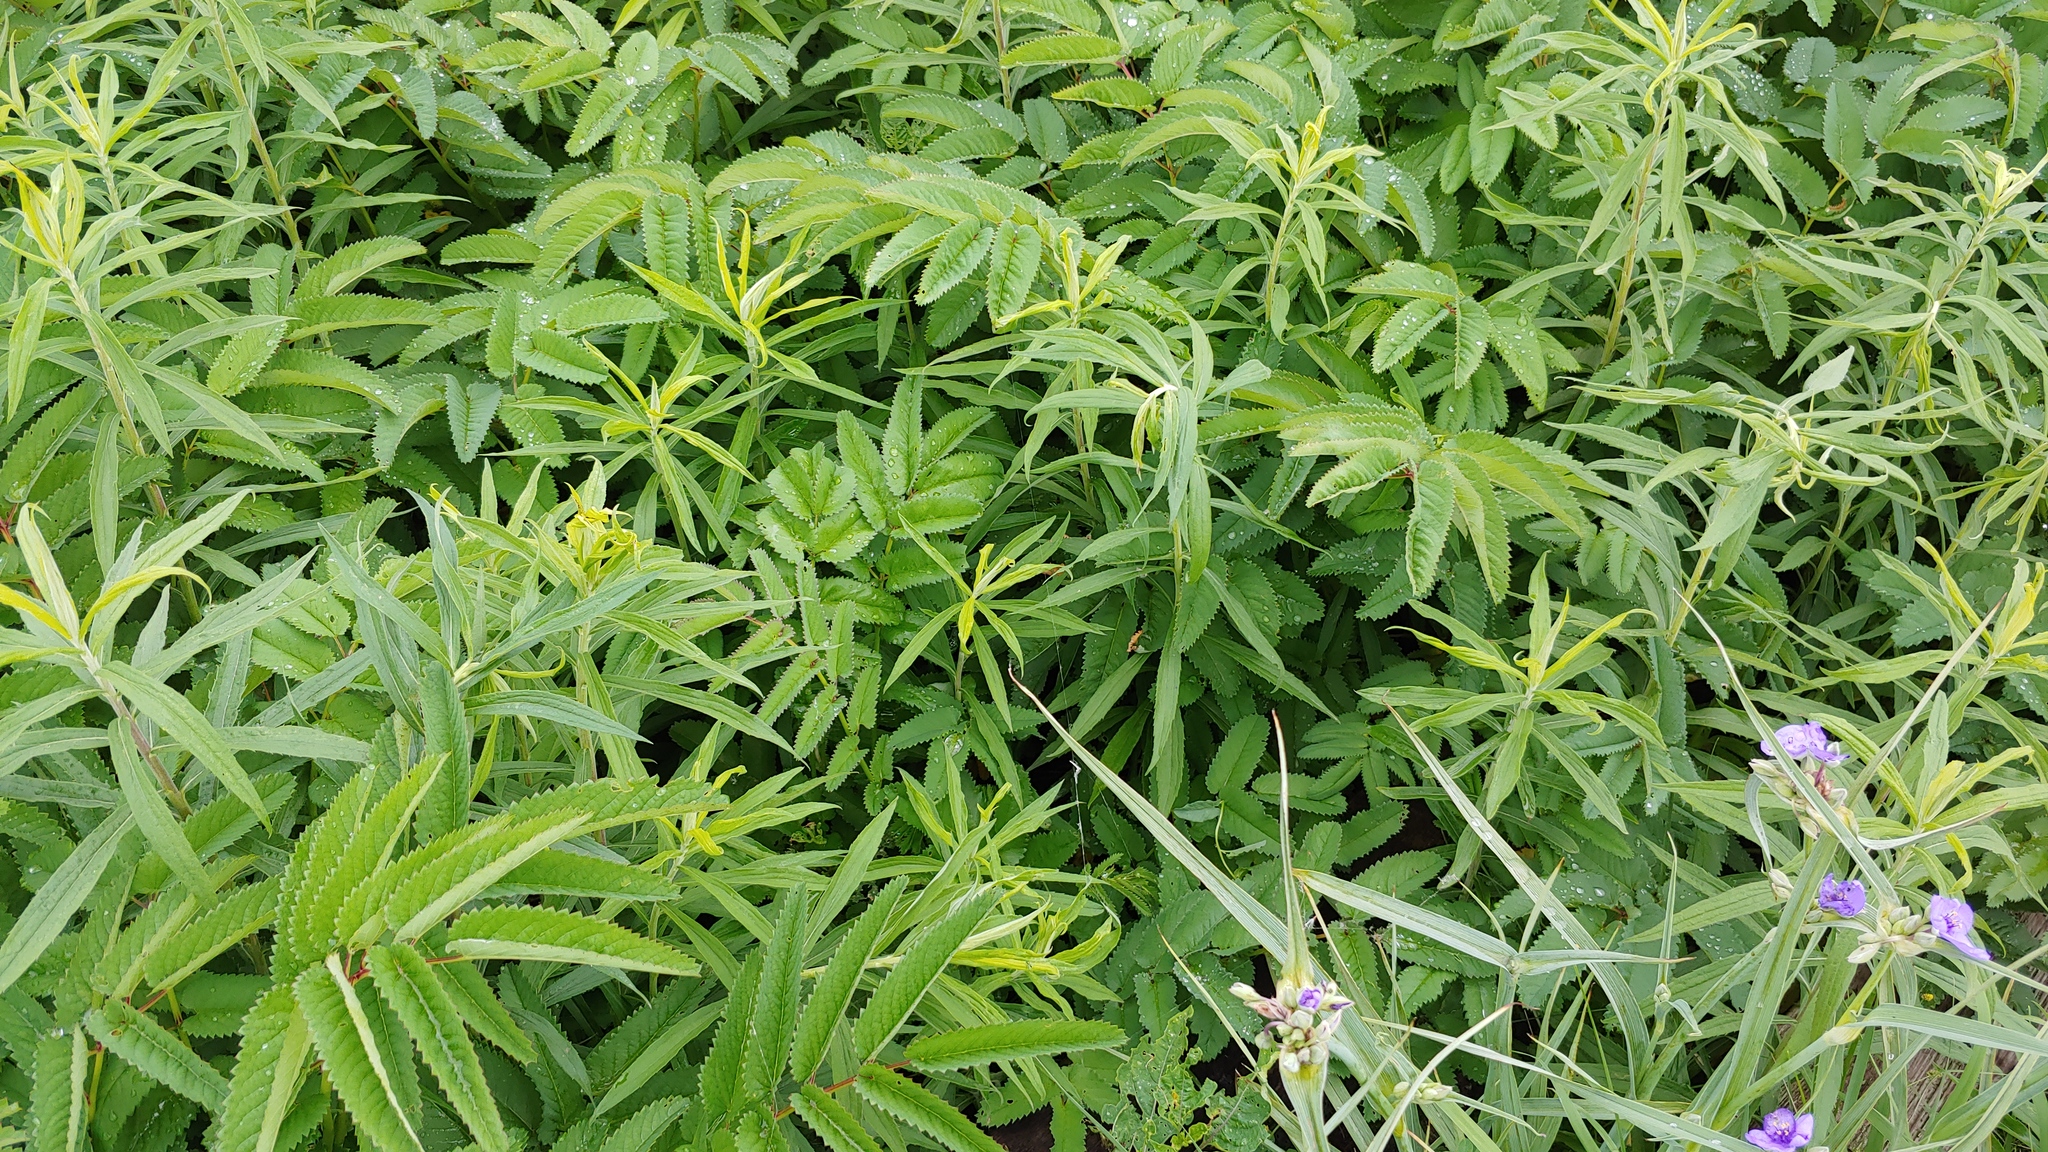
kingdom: Plantae
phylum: Tracheophyta
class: Magnoliopsida
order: Rosales
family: Rosaceae
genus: Sanguisorba
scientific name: Sanguisorba canadensis
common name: White burnet
